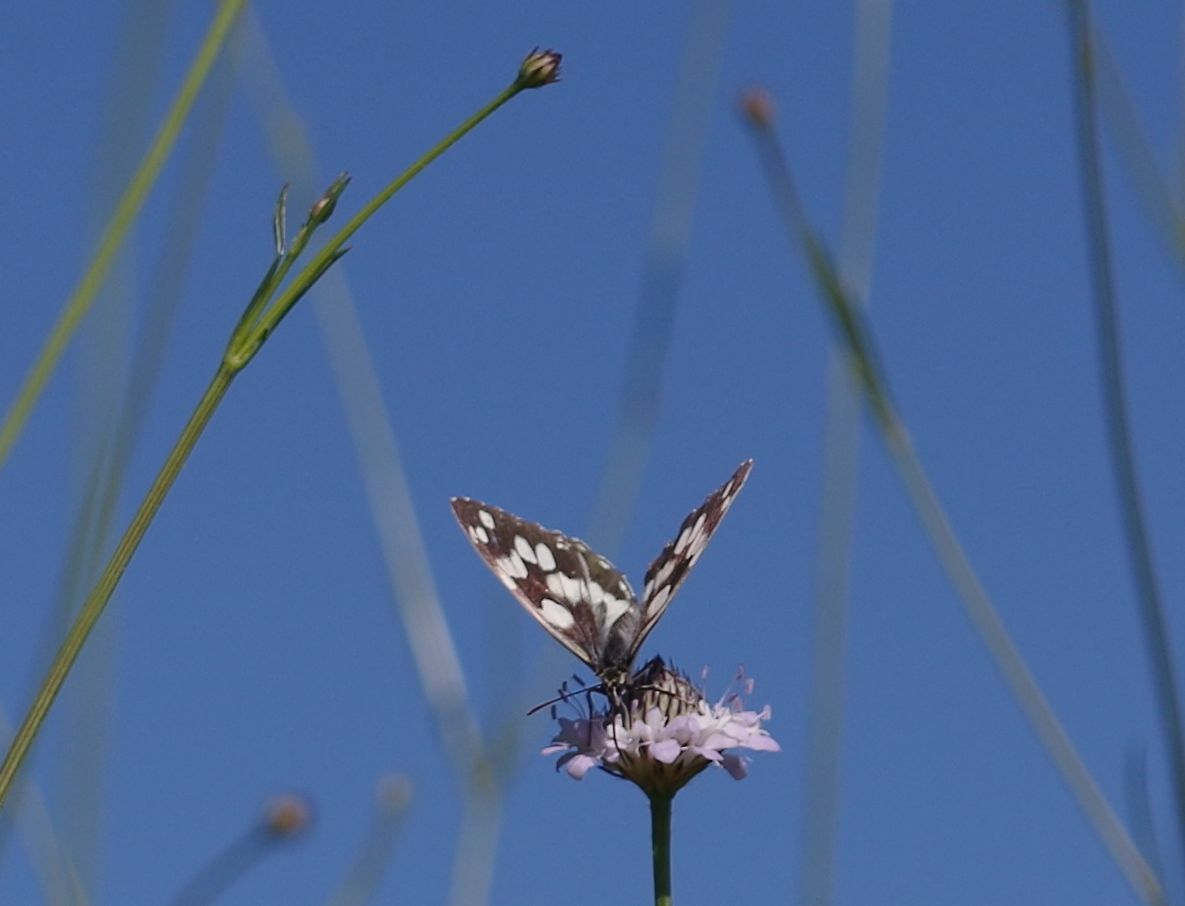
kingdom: Animalia
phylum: Arthropoda
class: Insecta
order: Lepidoptera
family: Nymphalidae
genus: Melanargia
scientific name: Melanargia galathea
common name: Marbled white
